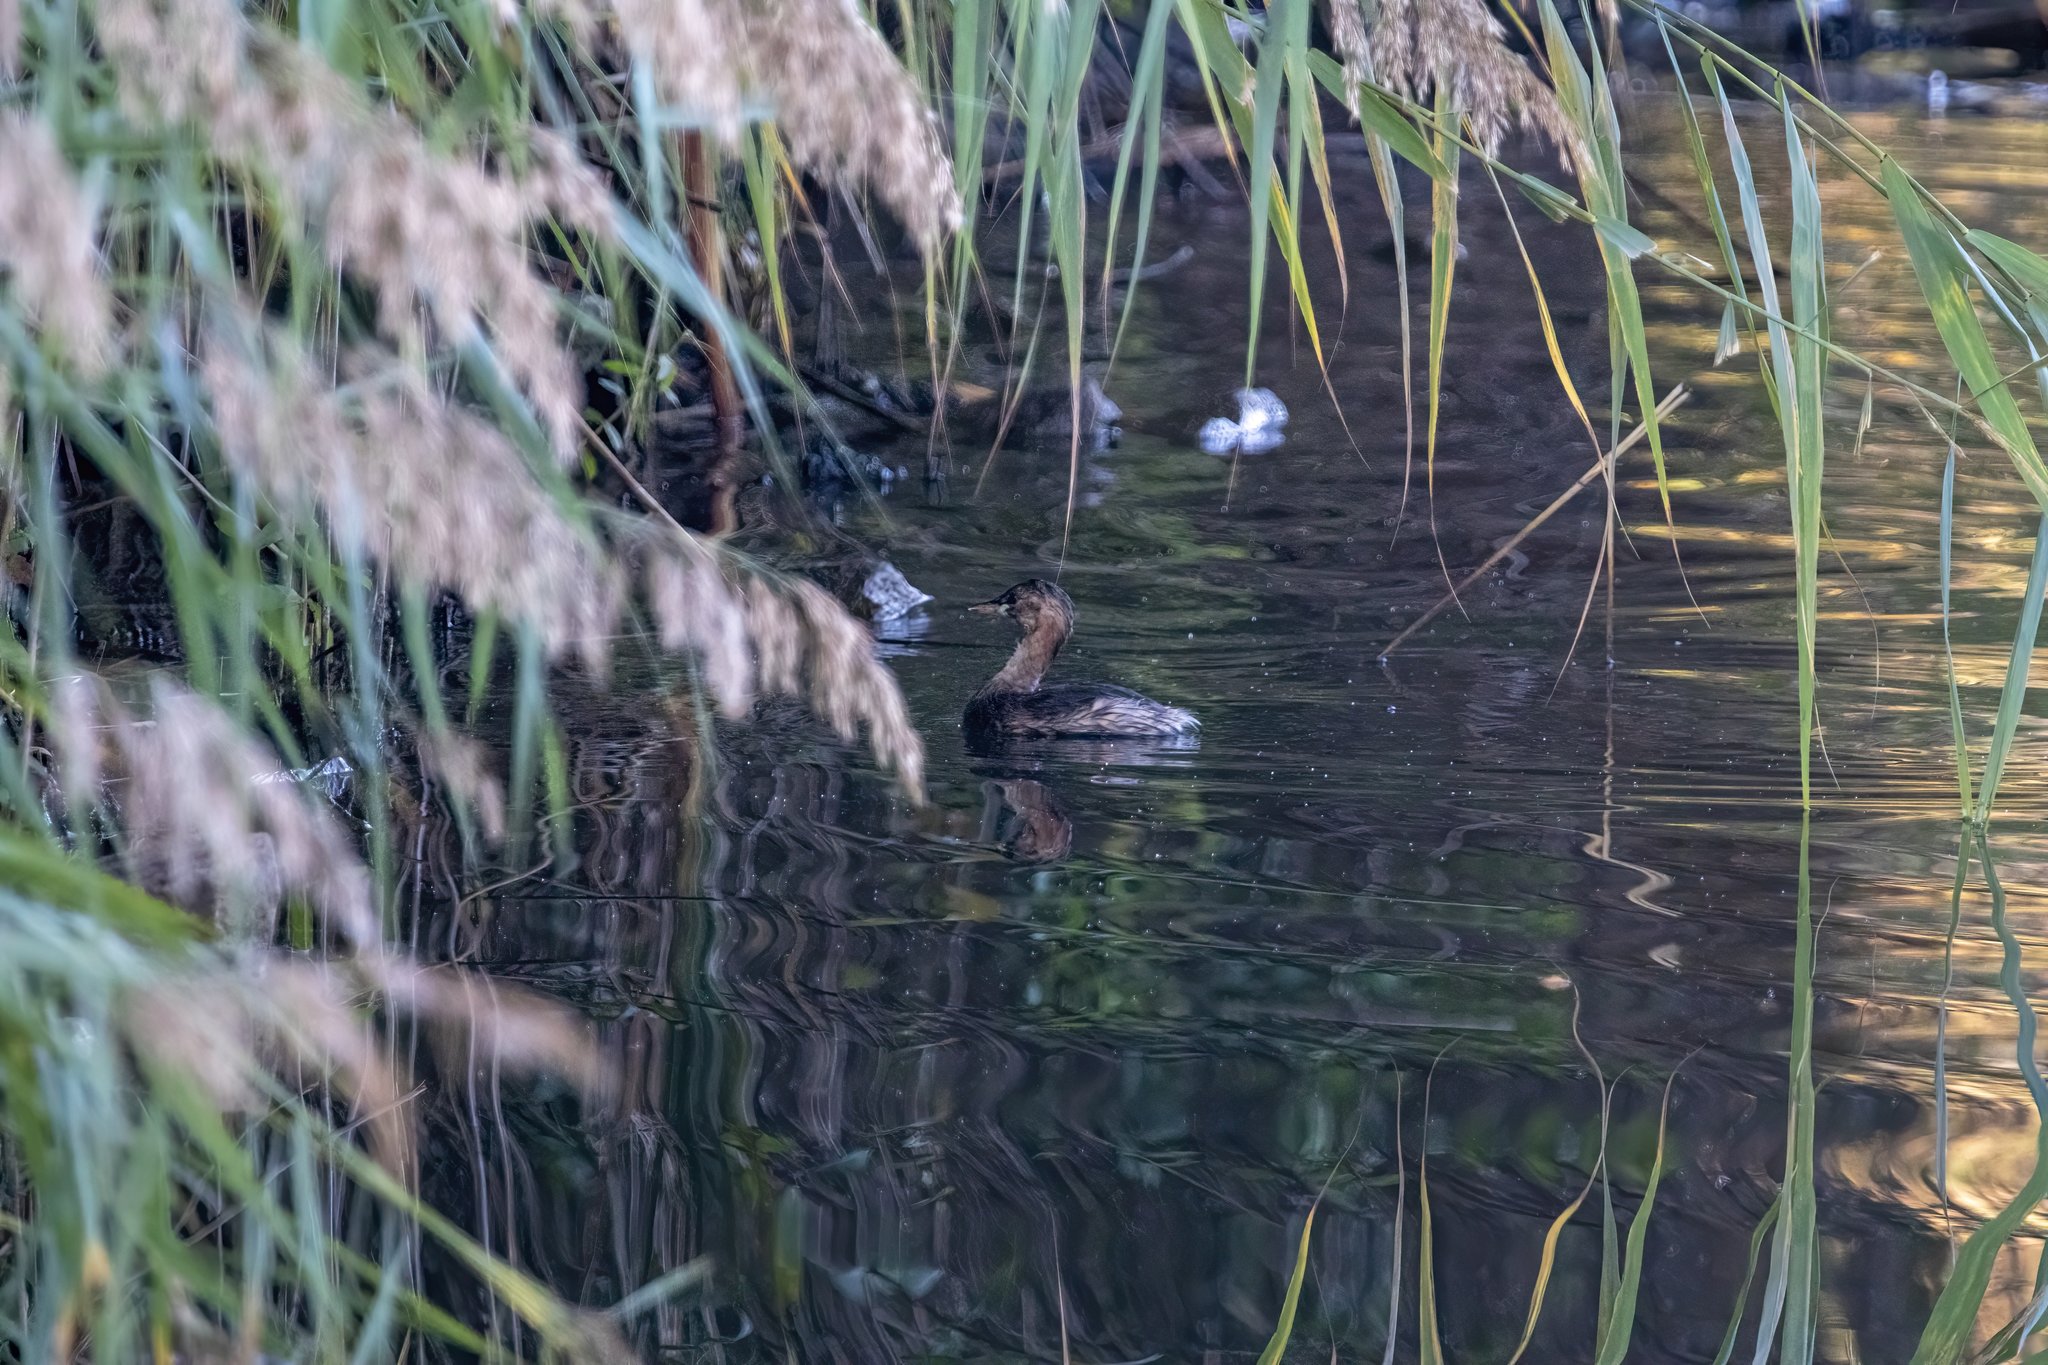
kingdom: Animalia
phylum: Chordata
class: Aves
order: Podicipediformes
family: Podicipedidae
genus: Tachybaptus
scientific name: Tachybaptus ruficollis
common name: Little grebe
